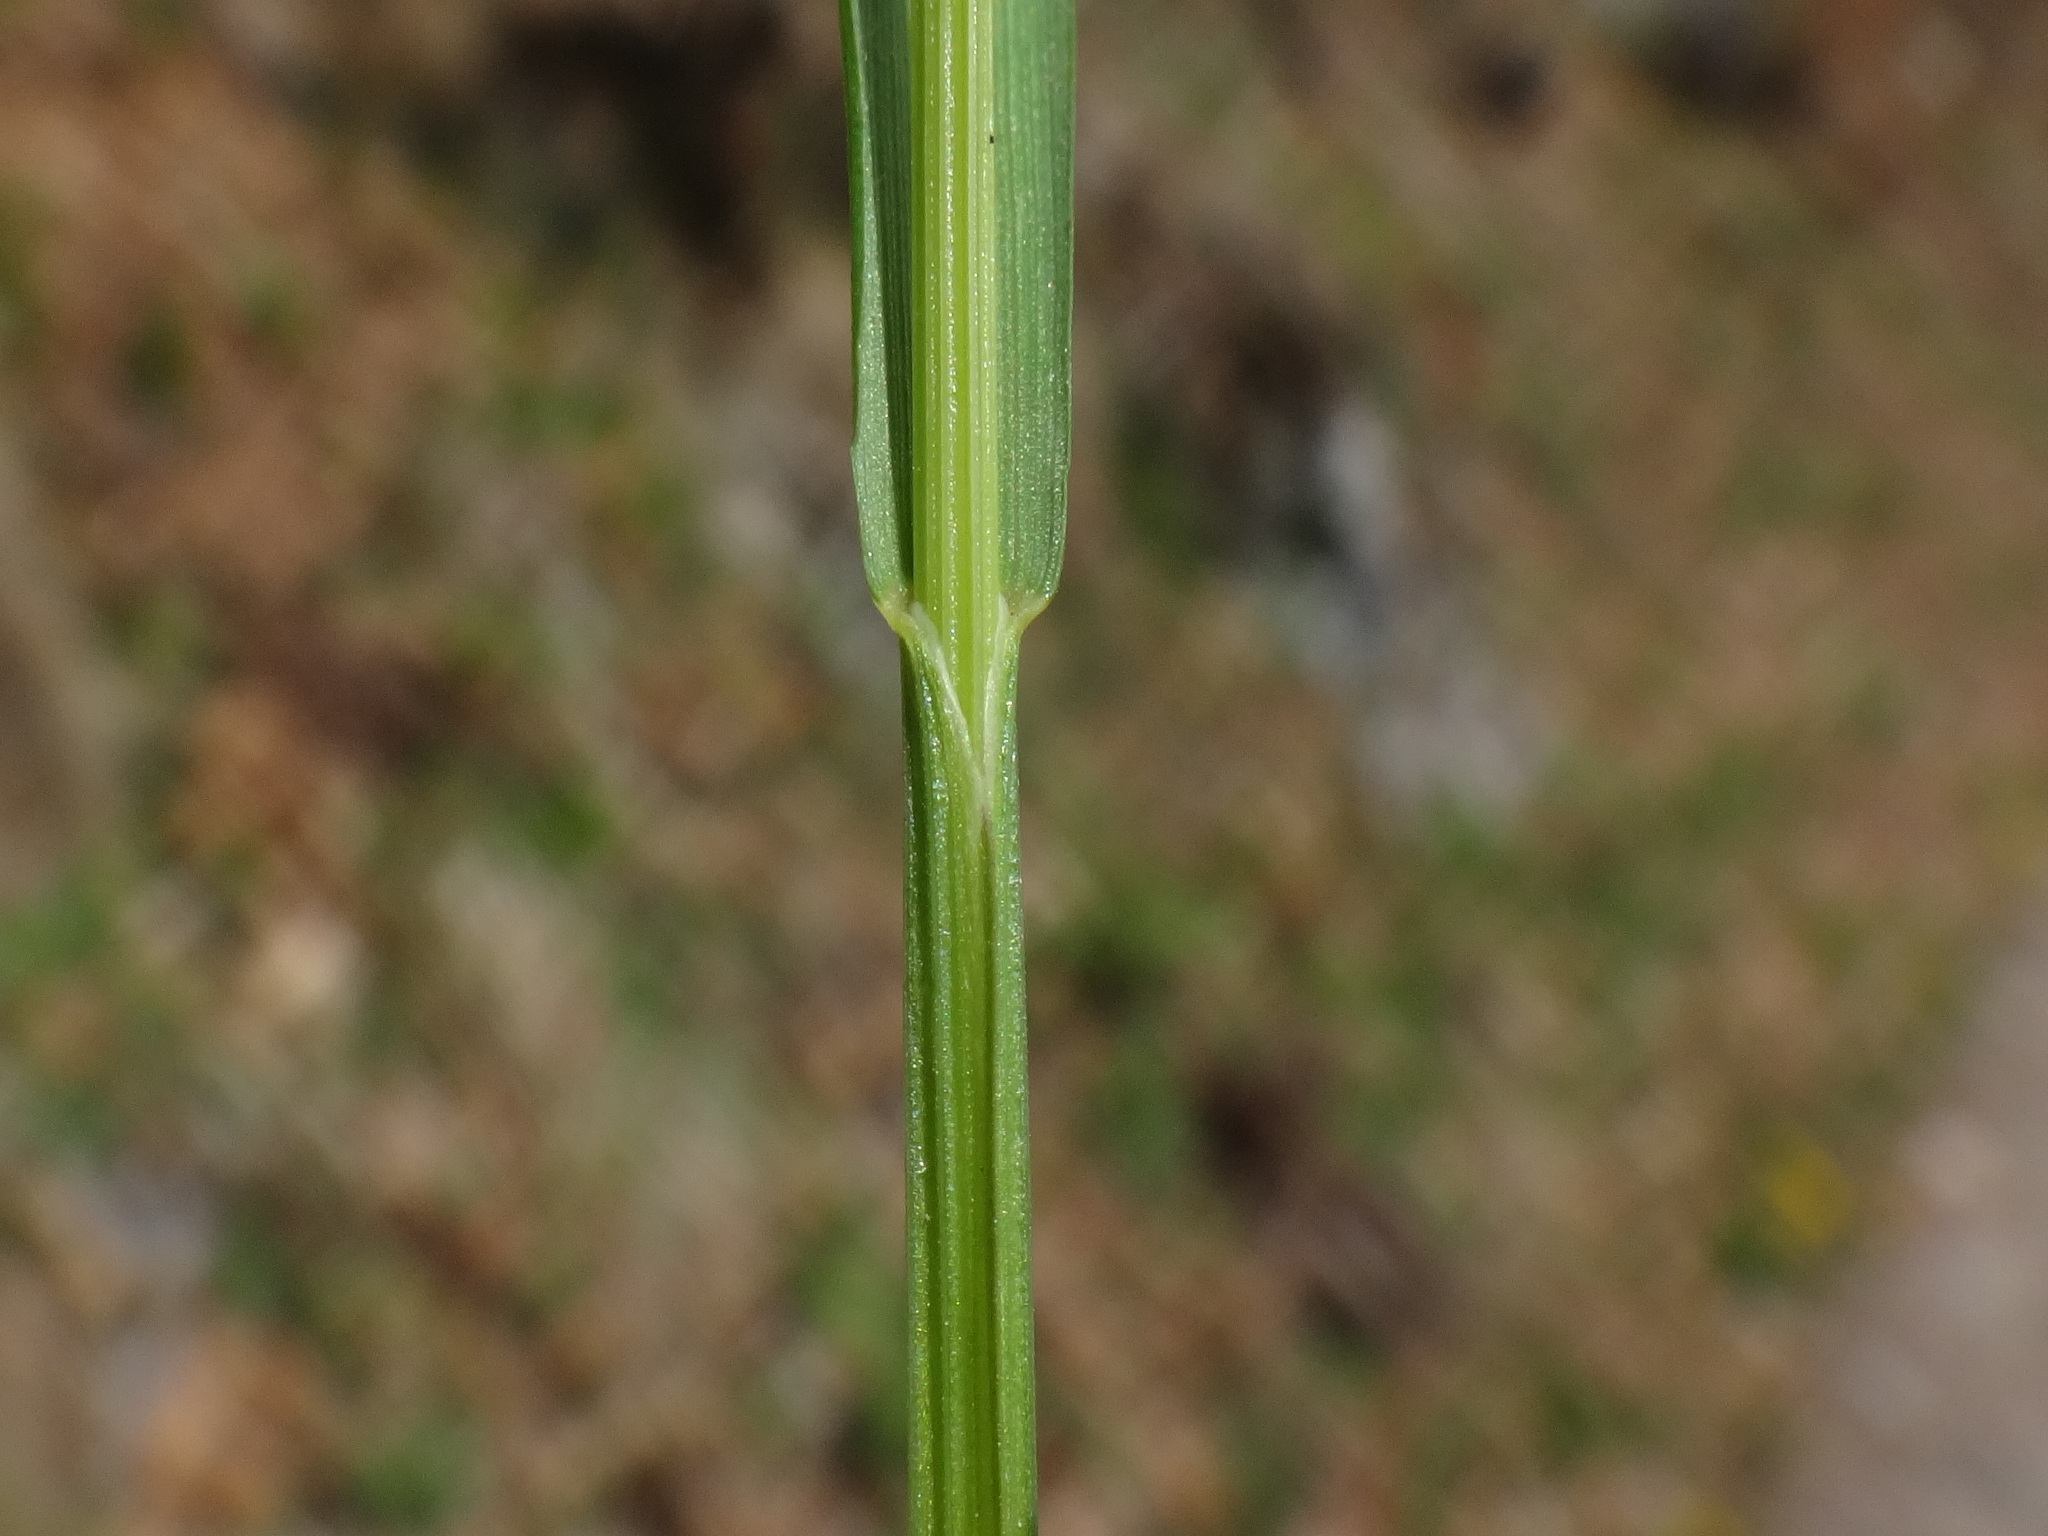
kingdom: Plantae
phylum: Tracheophyta
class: Liliopsida
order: Poales
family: Poaceae
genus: Melica
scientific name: Melica nutans
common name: Mountain melick
